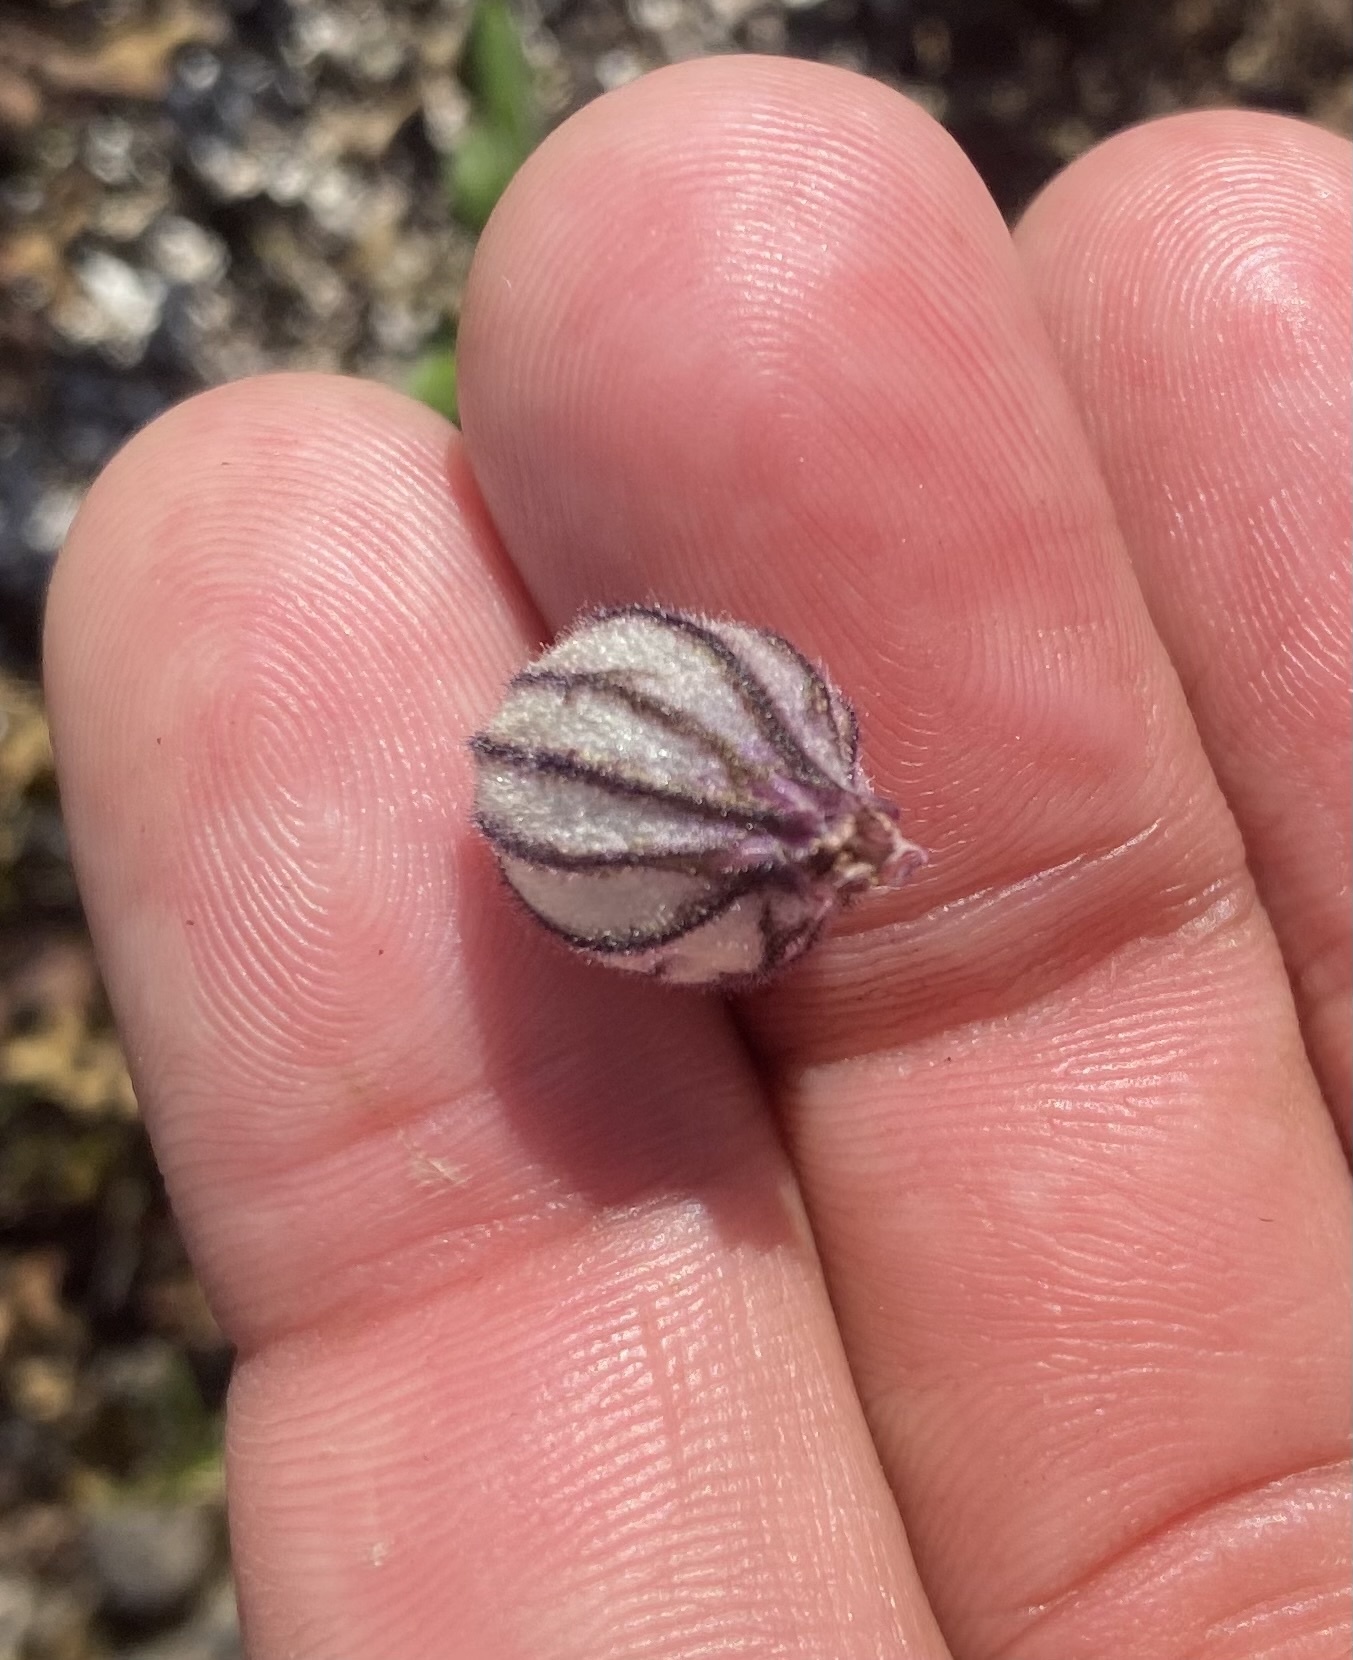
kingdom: Plantae
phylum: Tracheophyta
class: Magnoliopsida
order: Caryophyllales
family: Caryophyllaceae
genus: Silene
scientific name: Silene wahlbergella
